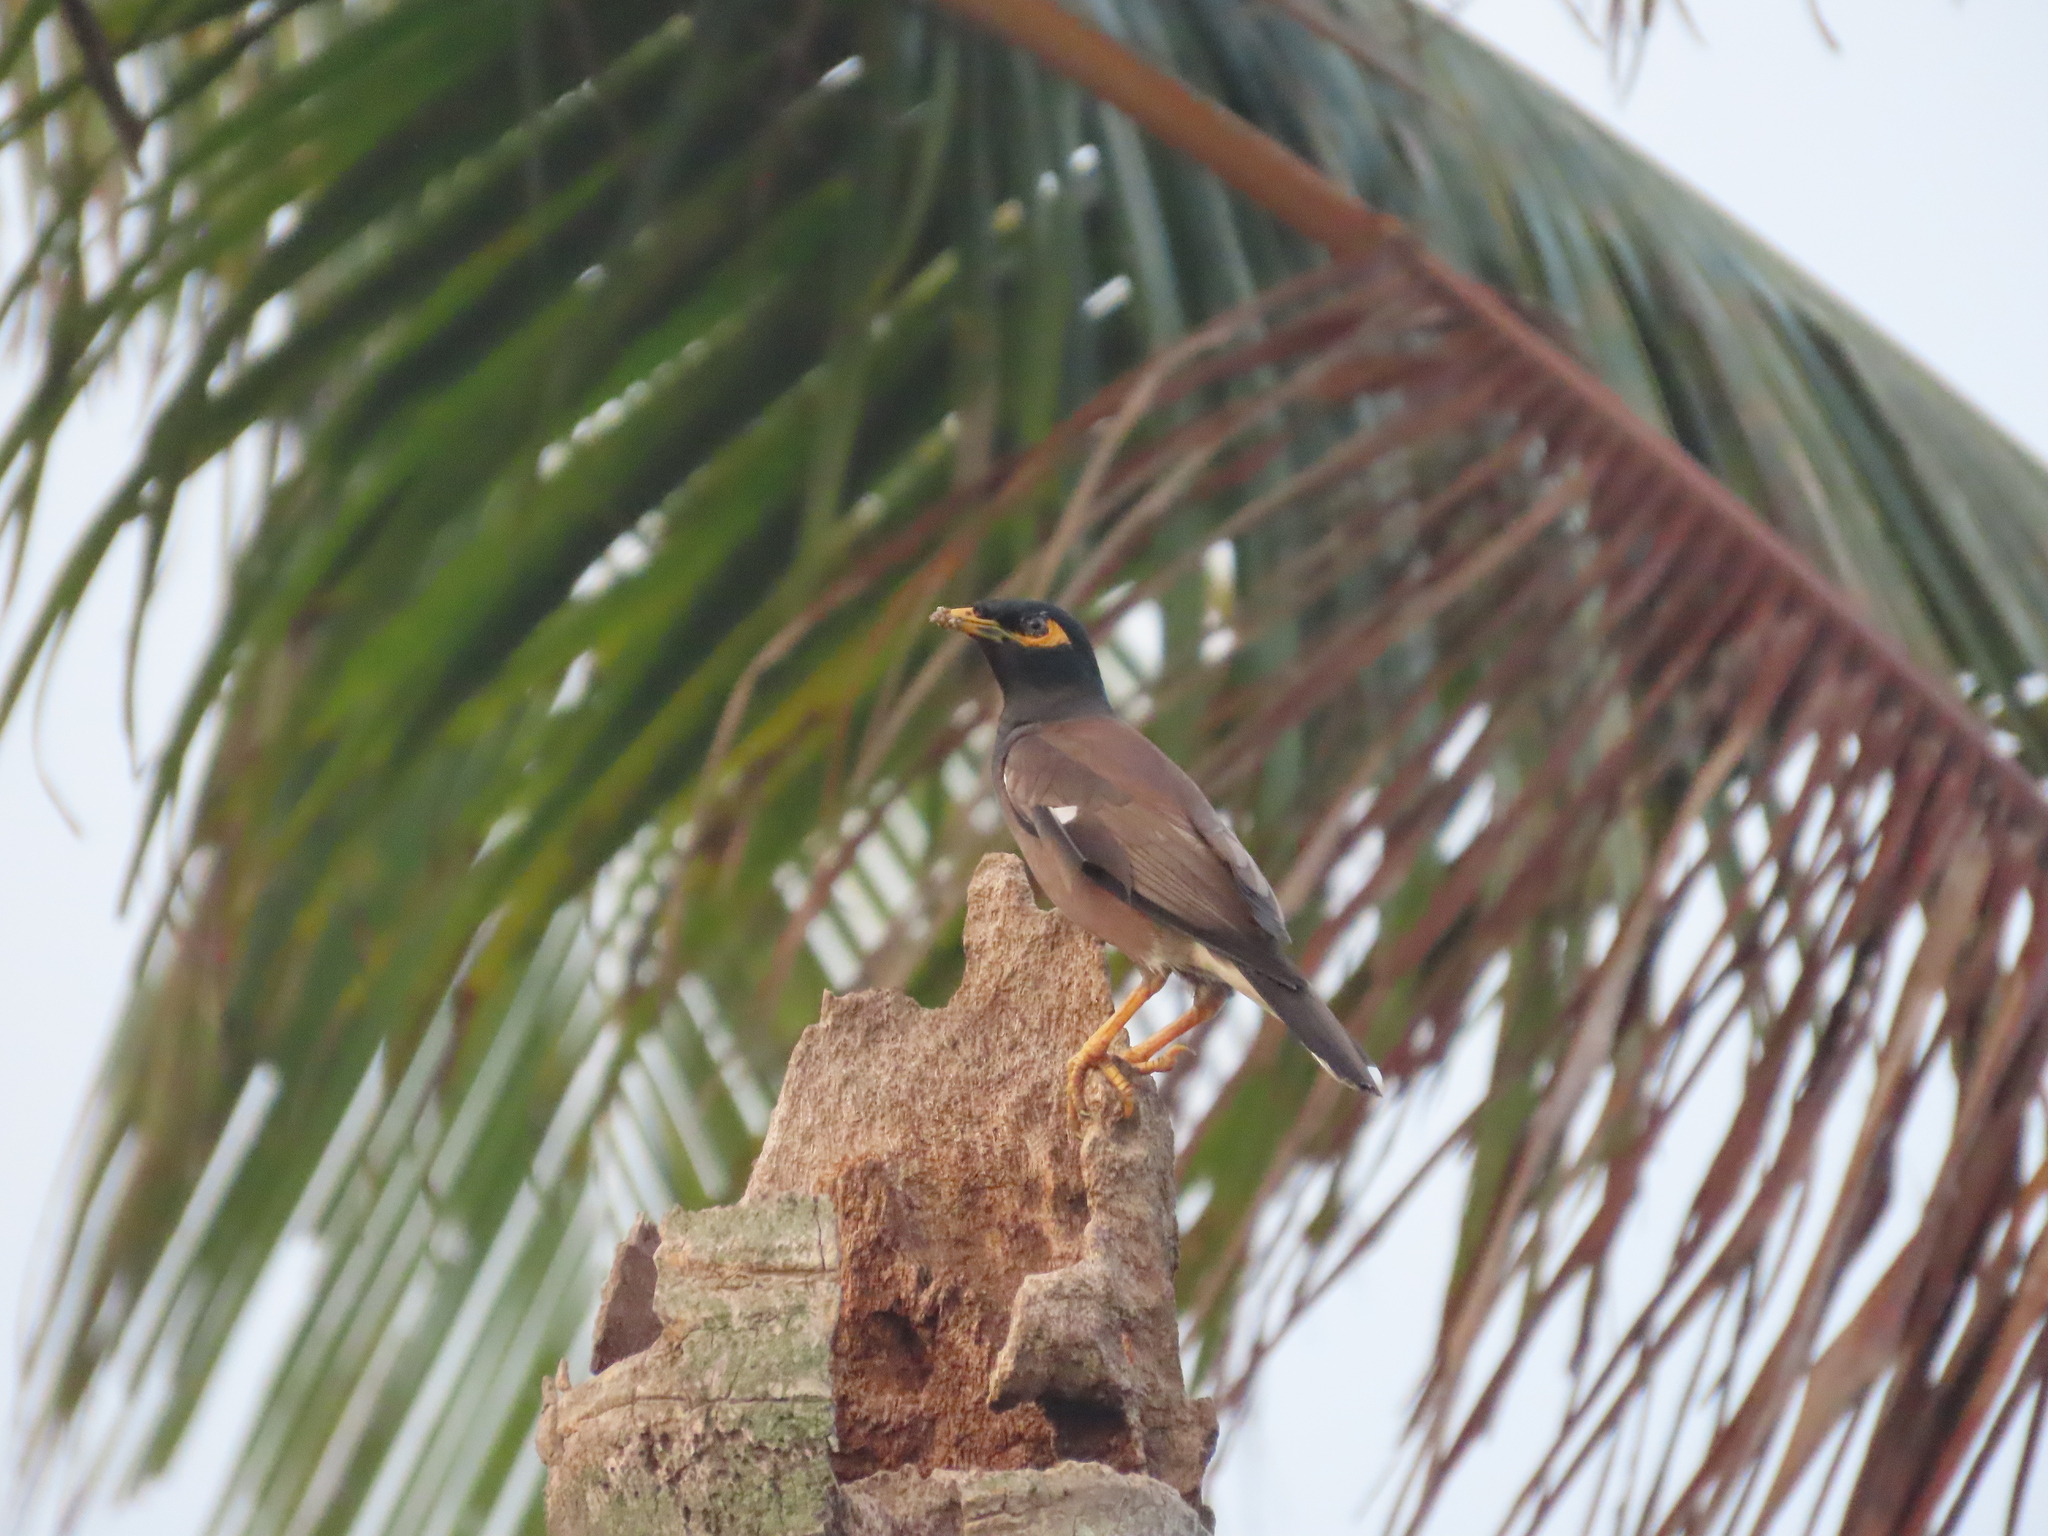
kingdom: Animalia
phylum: Chordata
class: Aves
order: Passeriformes
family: Sturnidae
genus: Acridotheres
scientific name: Acridotheres tristis
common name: Common myna
